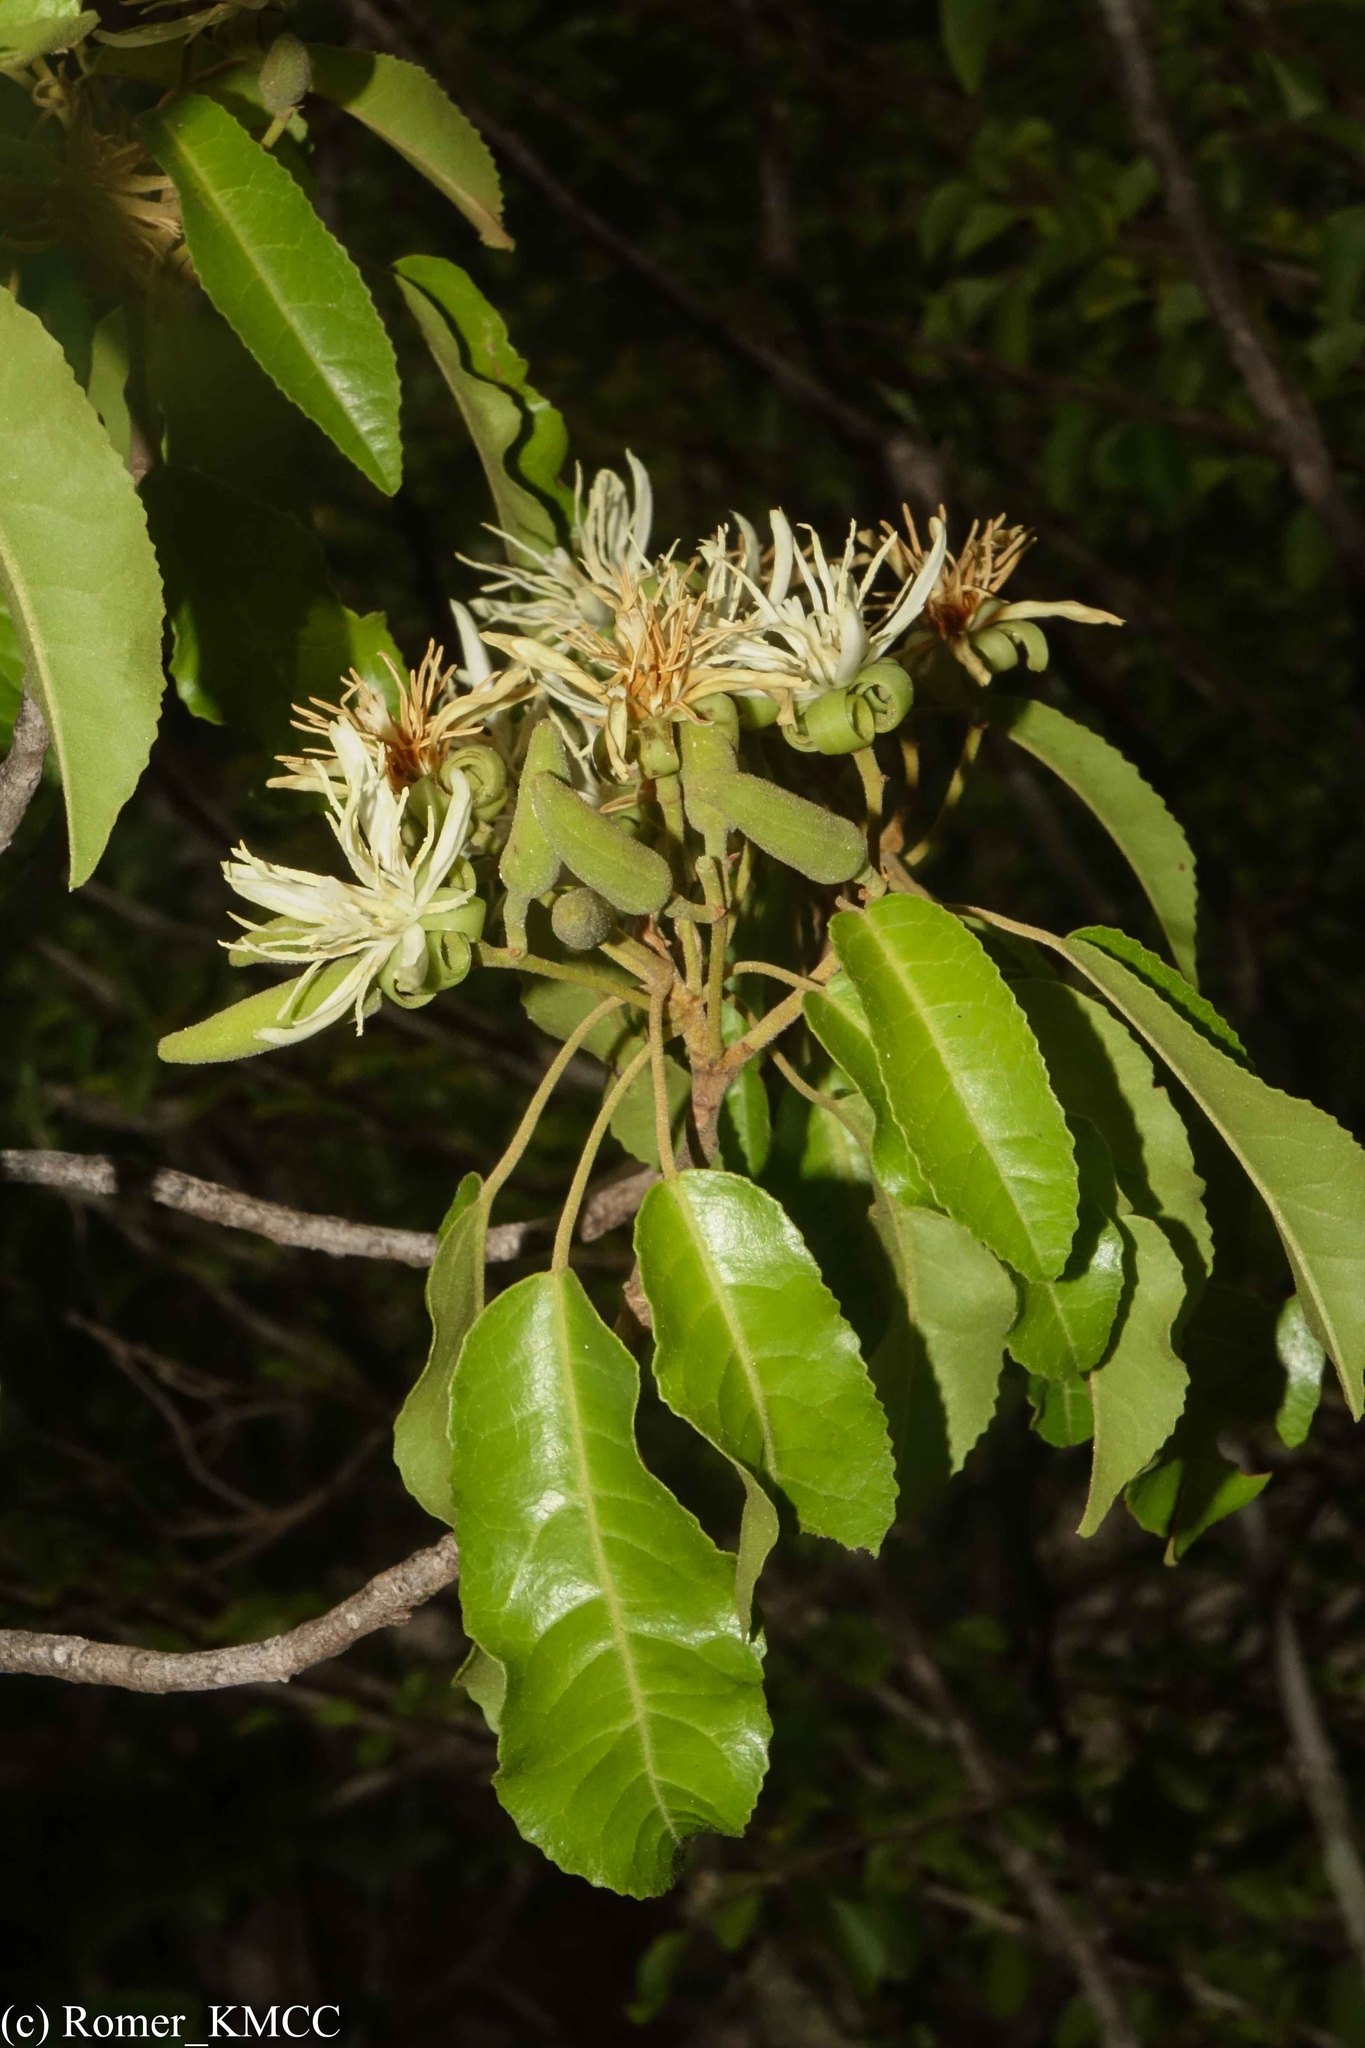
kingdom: Plantae
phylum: Tracheophyta
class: Magnoliopsida
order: Malvales
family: Malvaceae
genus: Nesogordonia
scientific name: Nesogordonia stylosa
